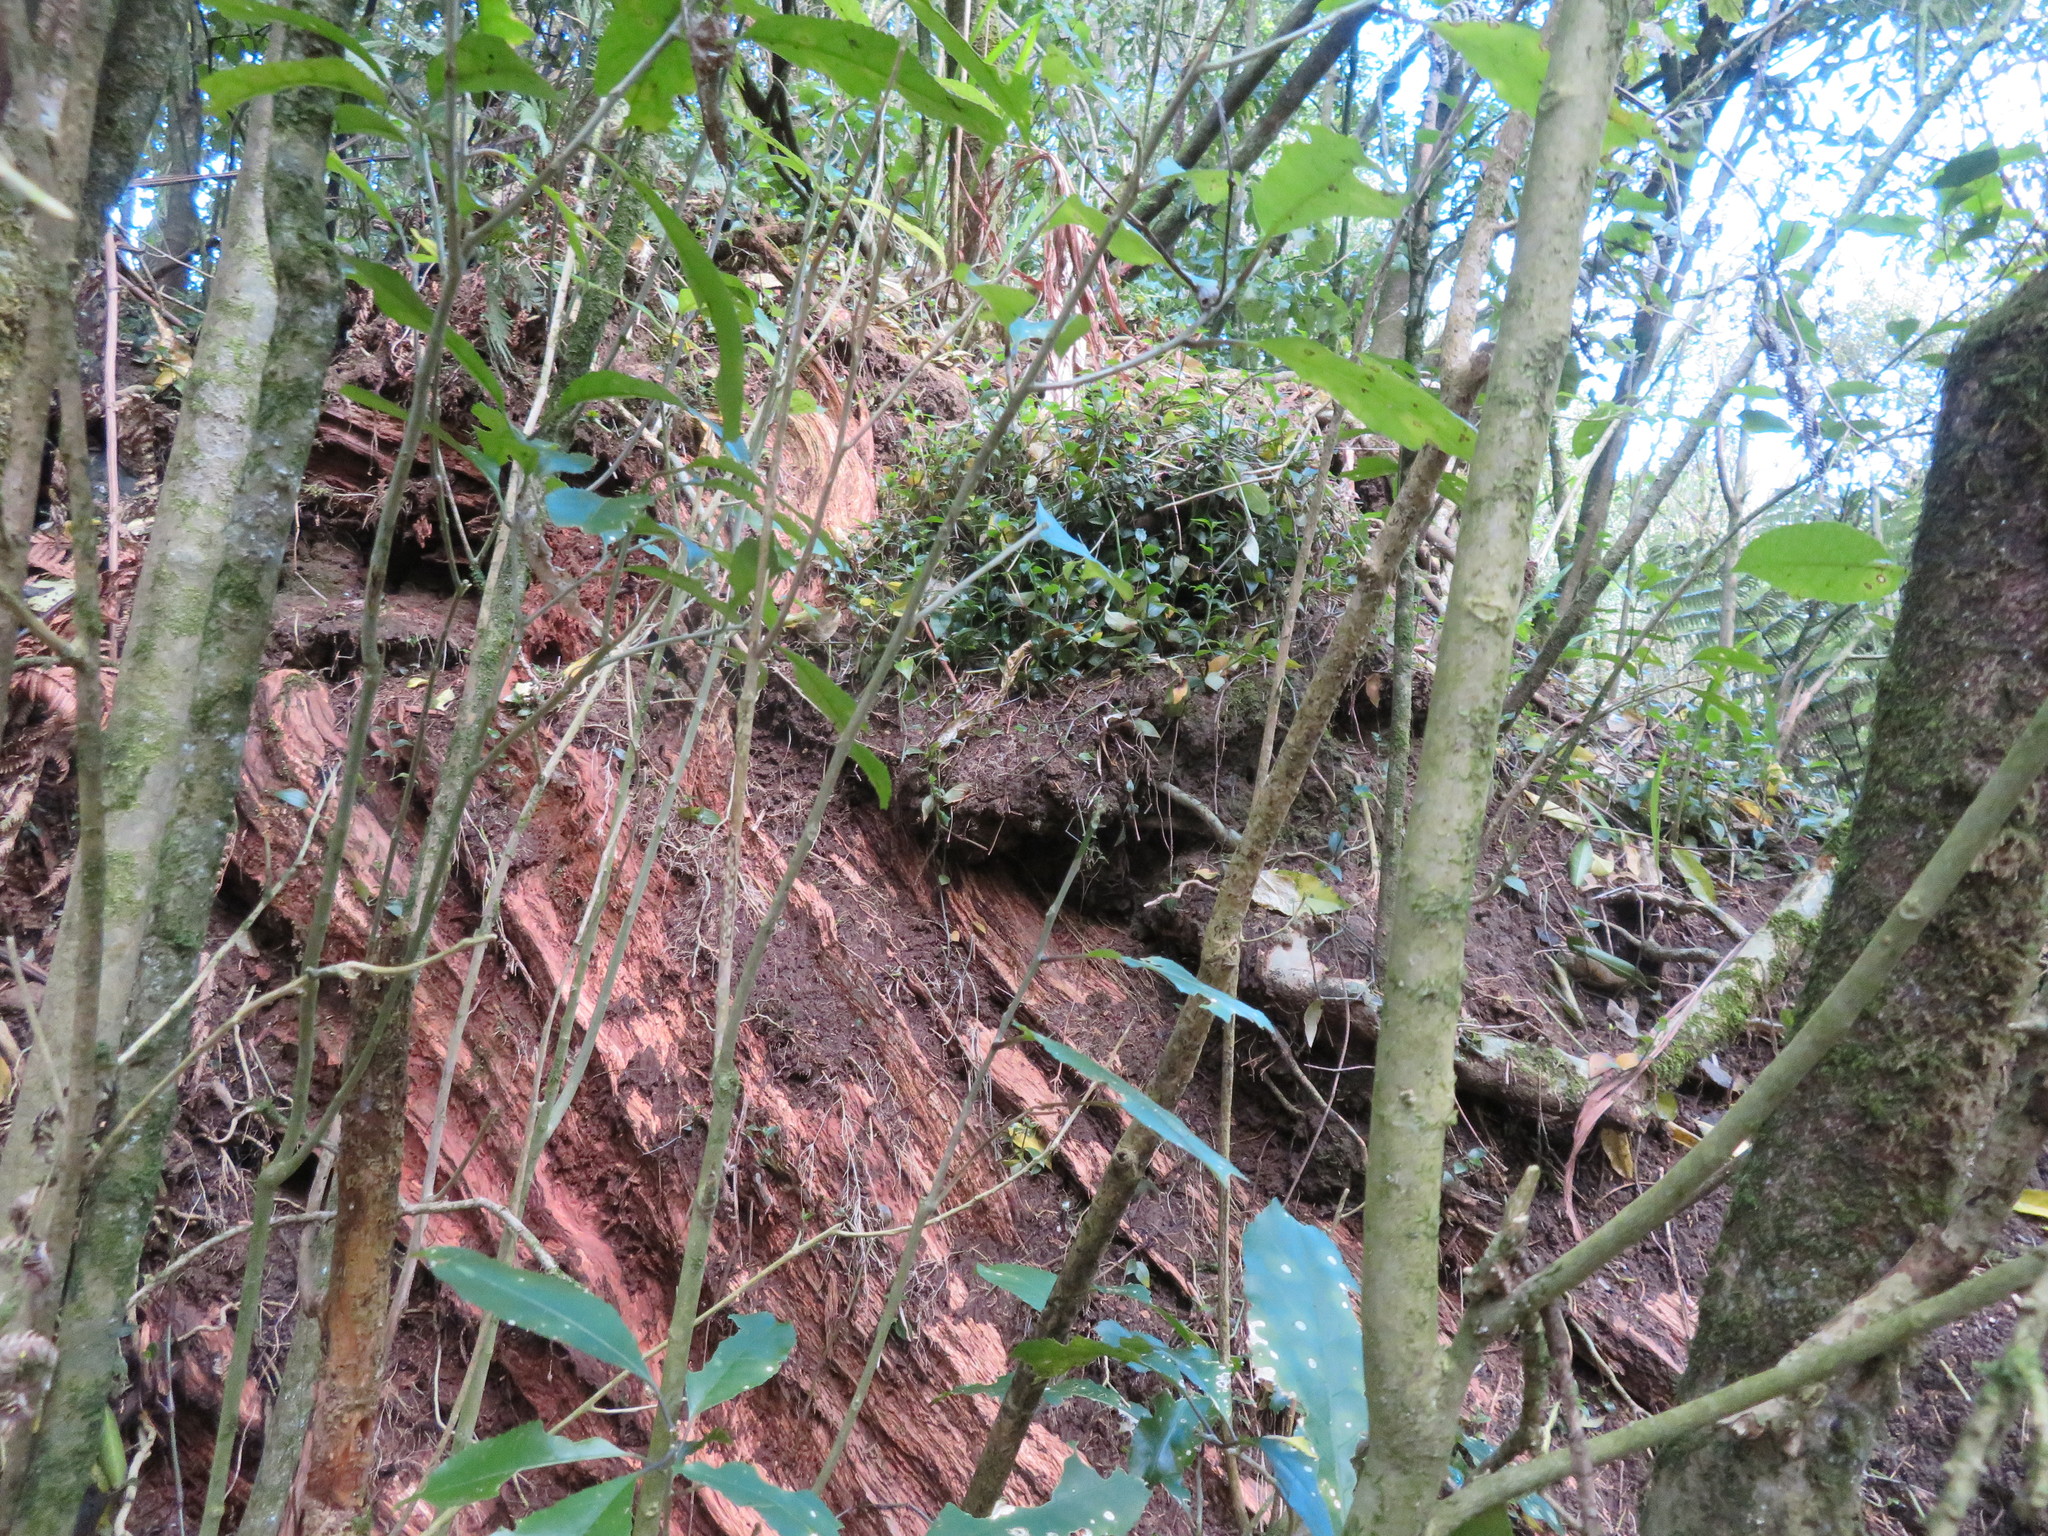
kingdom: Plantae
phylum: Tracheophyta
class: Liliopsida
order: Commelinales
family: Commelinaceae
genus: Tradescantia
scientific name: Tradescantia fluminensis
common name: Wandering-jew
